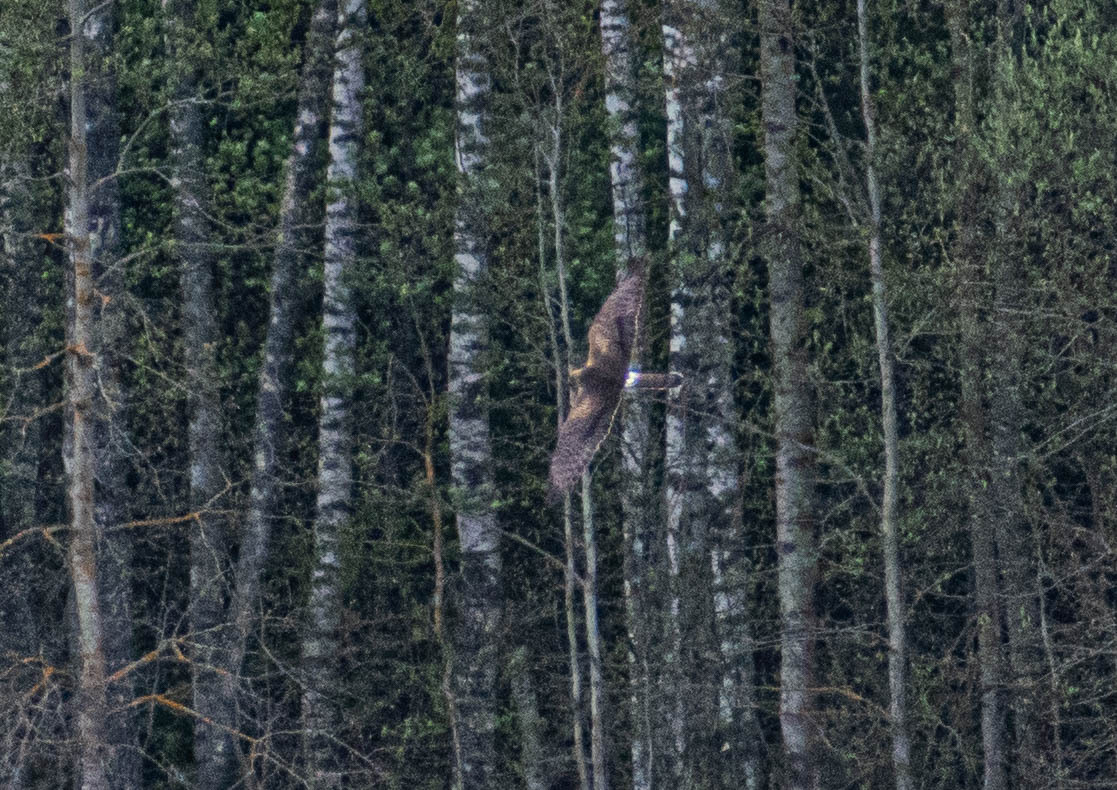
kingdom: Animalia
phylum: Chordata
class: Aves
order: Accipitriformes
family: Accipitridae
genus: Circus
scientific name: Circus pygargus
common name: Montagu's harrier
